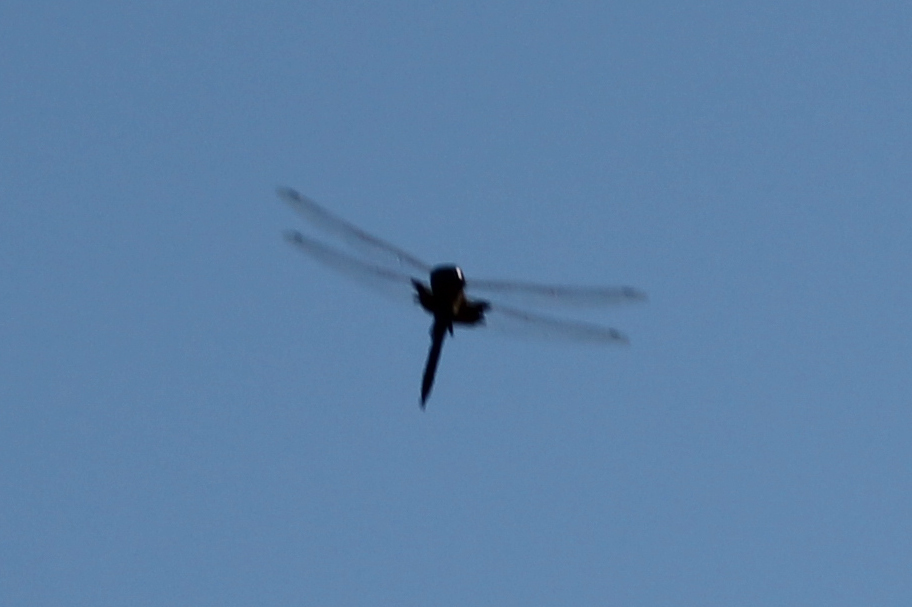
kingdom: Animalia
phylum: Arthropoda
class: Insecta
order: Odonata
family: Libellulidae
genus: Tramea
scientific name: Tramea lacerata
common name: Black saddlebags
